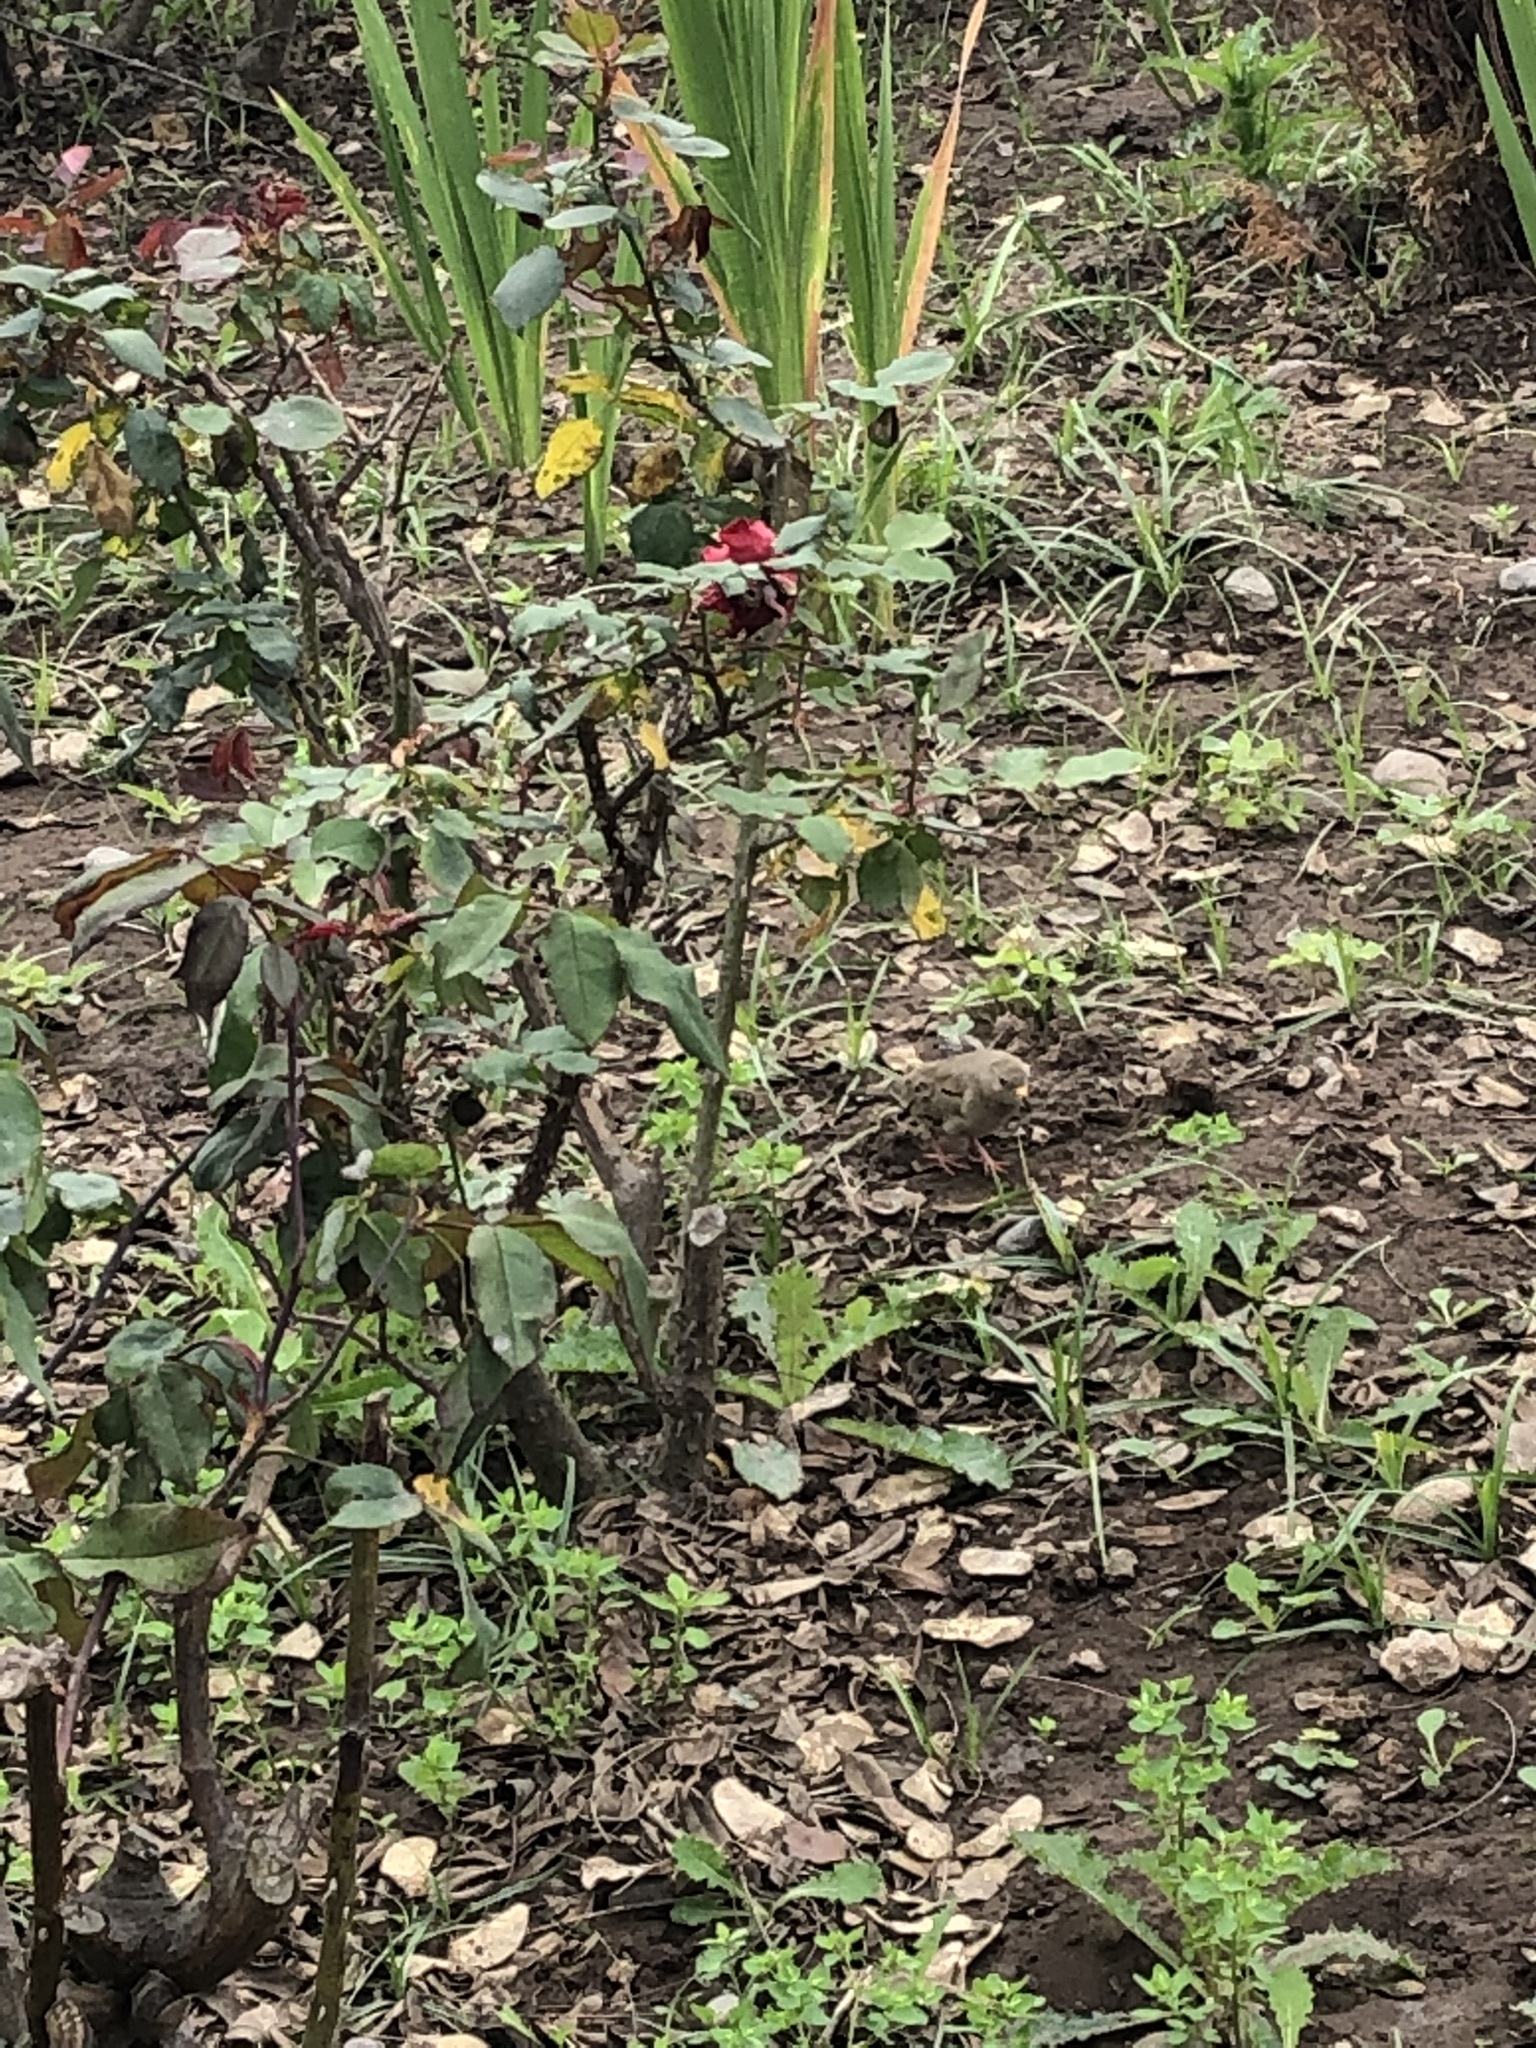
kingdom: Animalia
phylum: Chordata
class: Aves
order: Columbiformes
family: Columbidae
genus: Columbina
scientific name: Columbina cruziana
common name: Croaking ground dove
